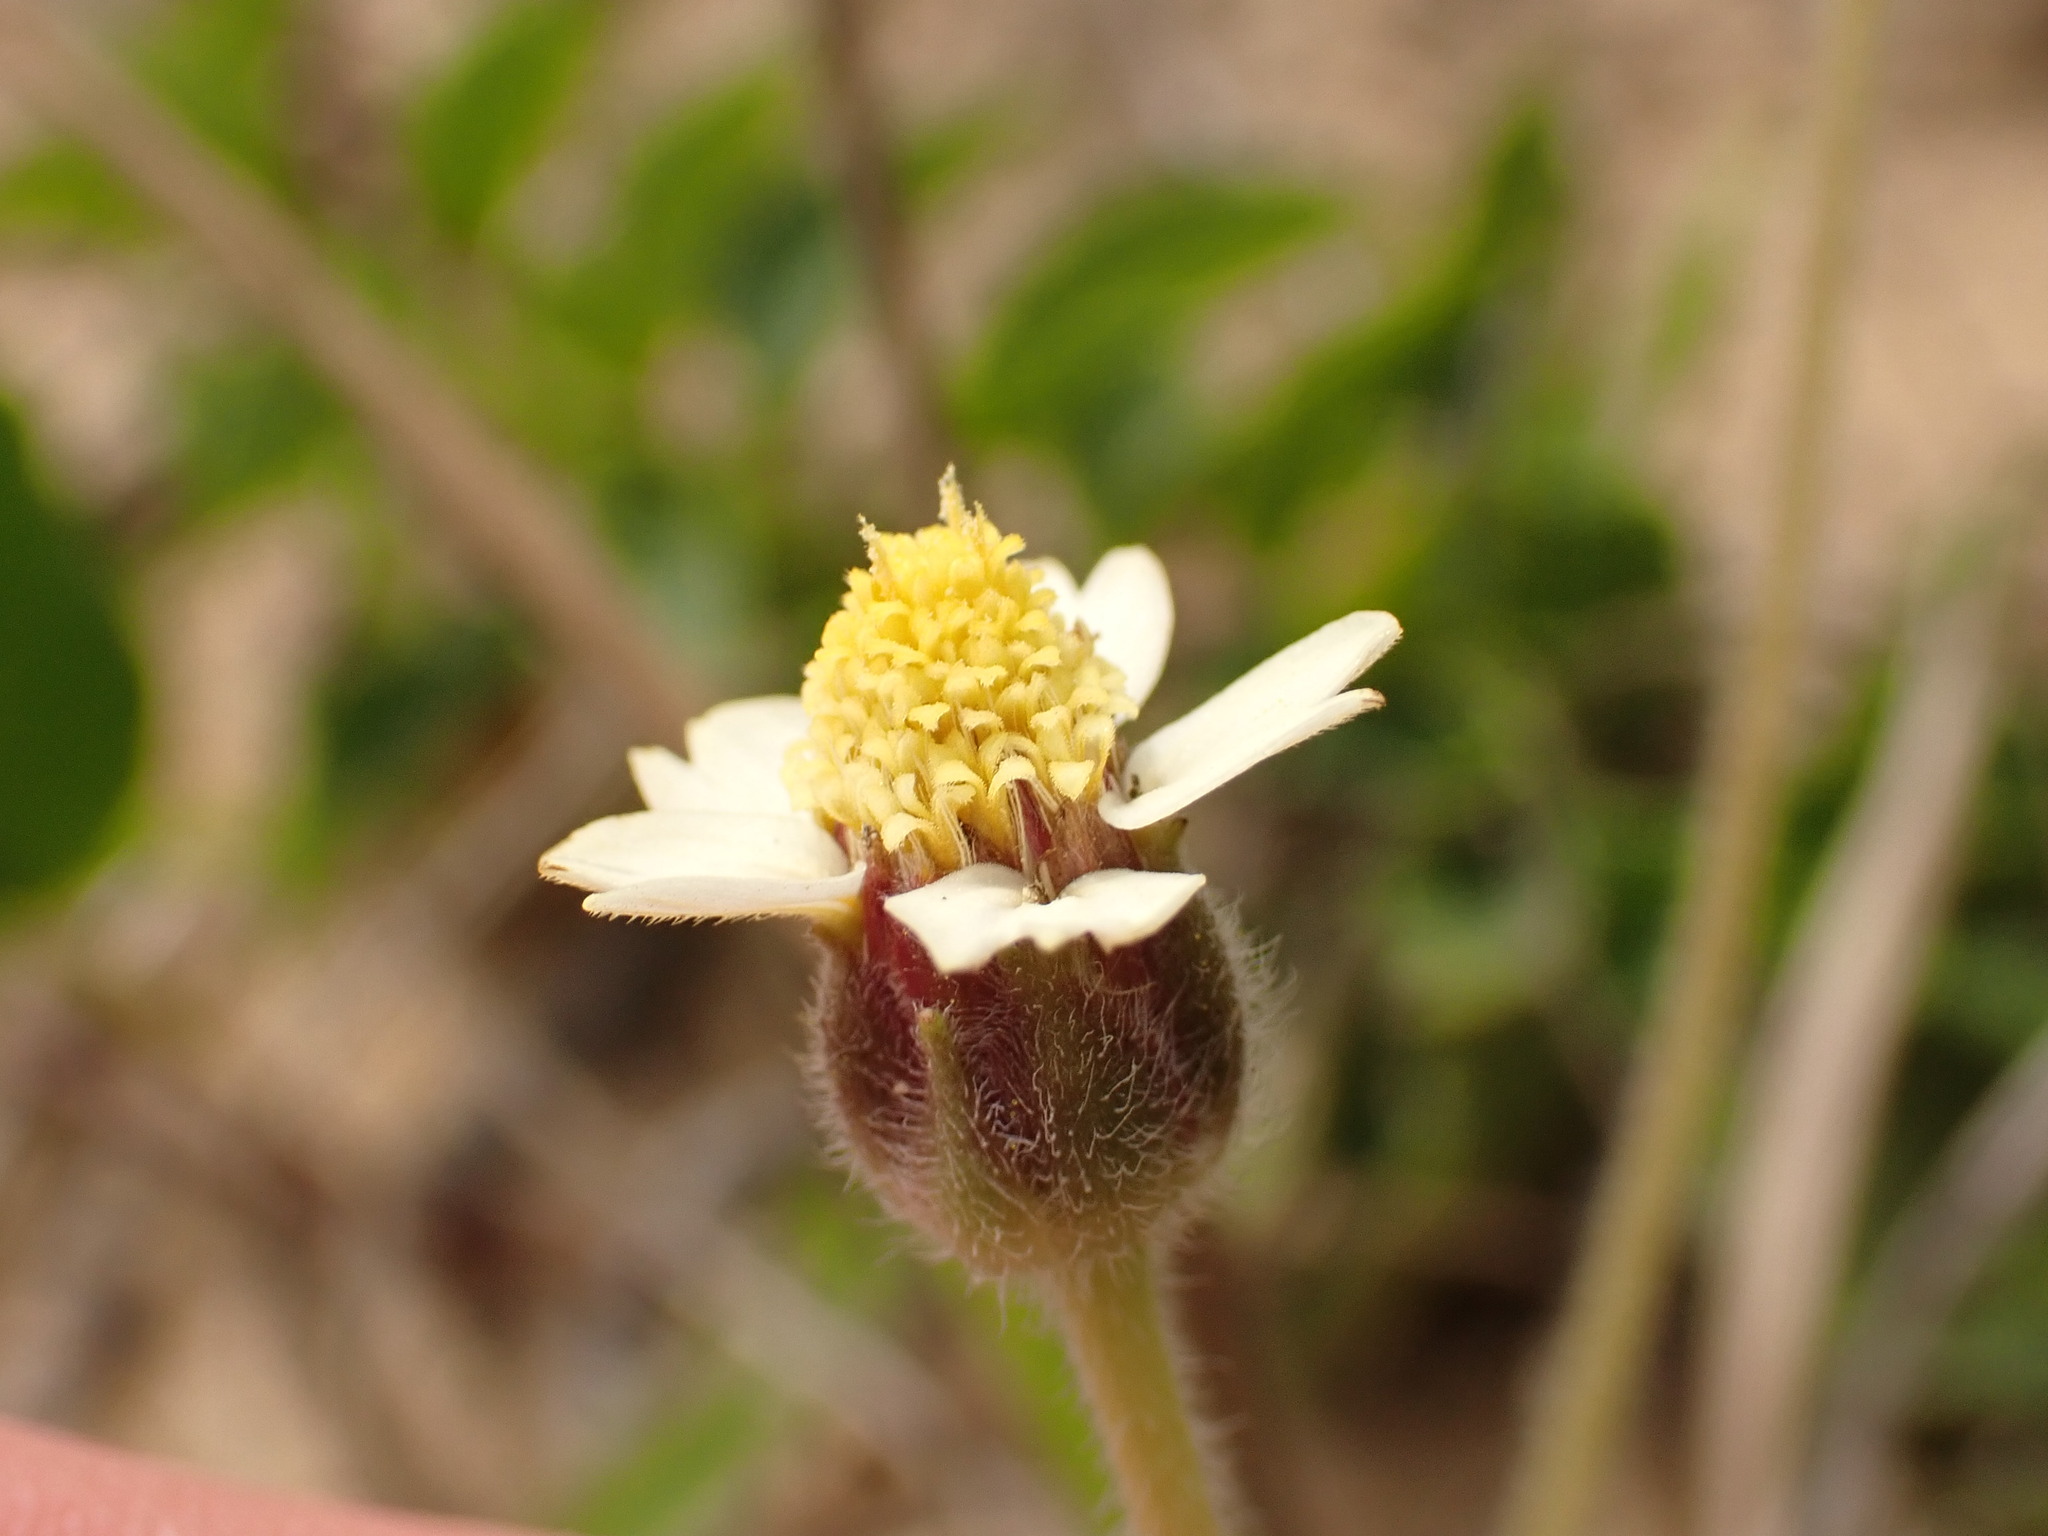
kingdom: Plantae
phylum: Tracheophyta
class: Magnoliopsida
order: Asterales
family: Asteraceae
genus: Tridax
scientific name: Tridax procumbens
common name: Coatbuttons
